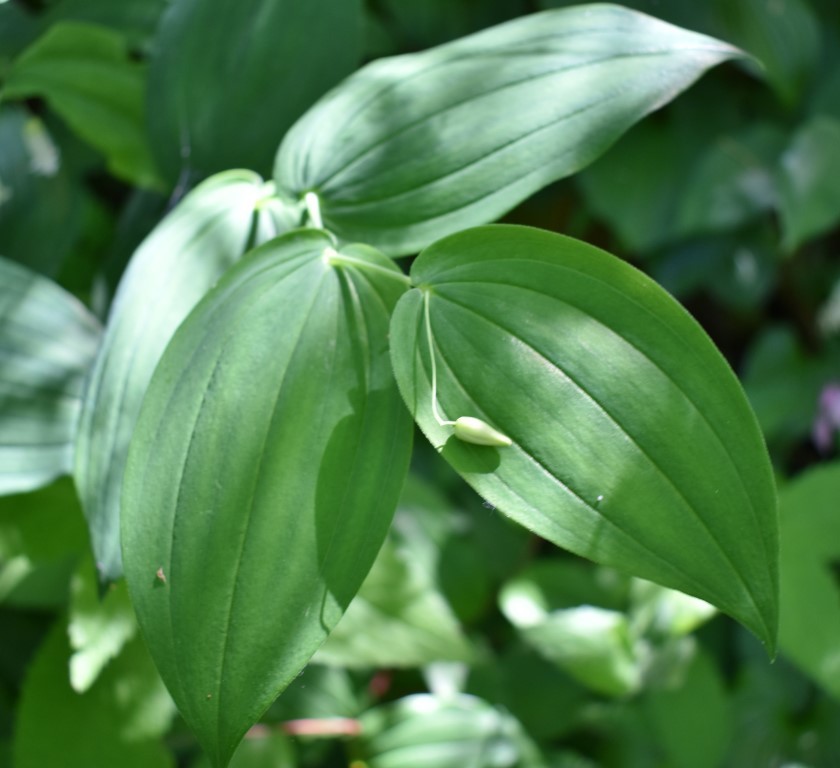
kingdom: Plantae
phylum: Tracheophyta
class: Liliopsida
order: Liliales
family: Liliaceae
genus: Streptopus
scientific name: Streptopus amplexifolius
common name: Clasp twisted stalk
